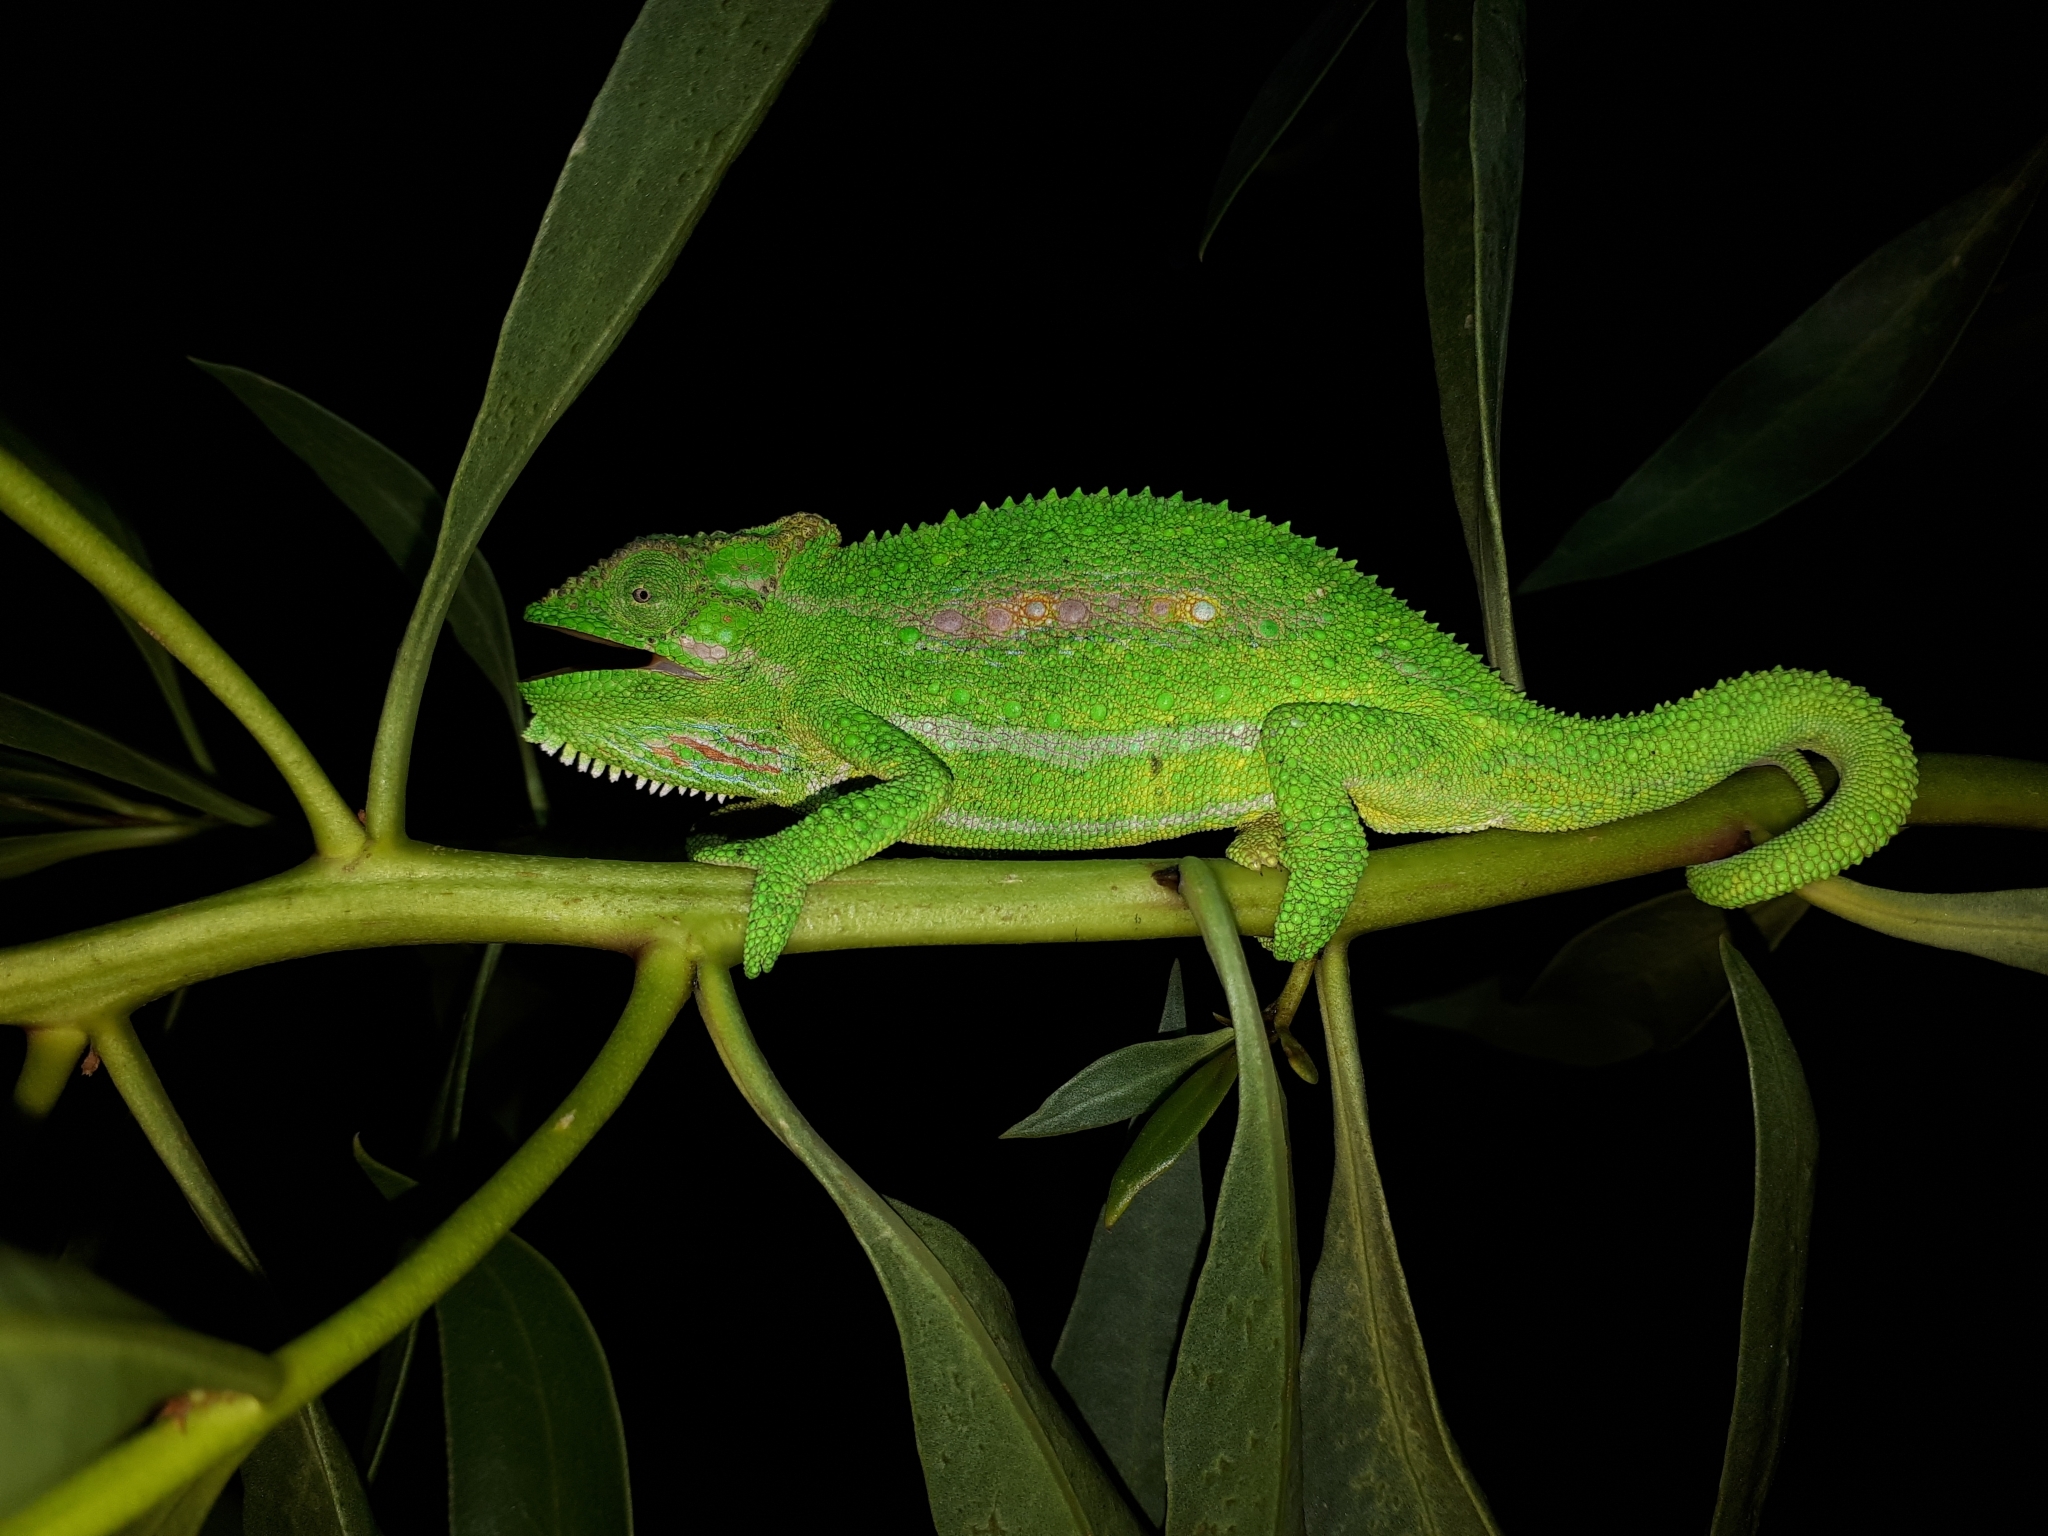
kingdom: Animalia
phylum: Chordata
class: Squamata
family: Chamaeleonidae
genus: Bradypodion
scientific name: Bradypodion pumilum
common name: Cape dwarf chameleon
